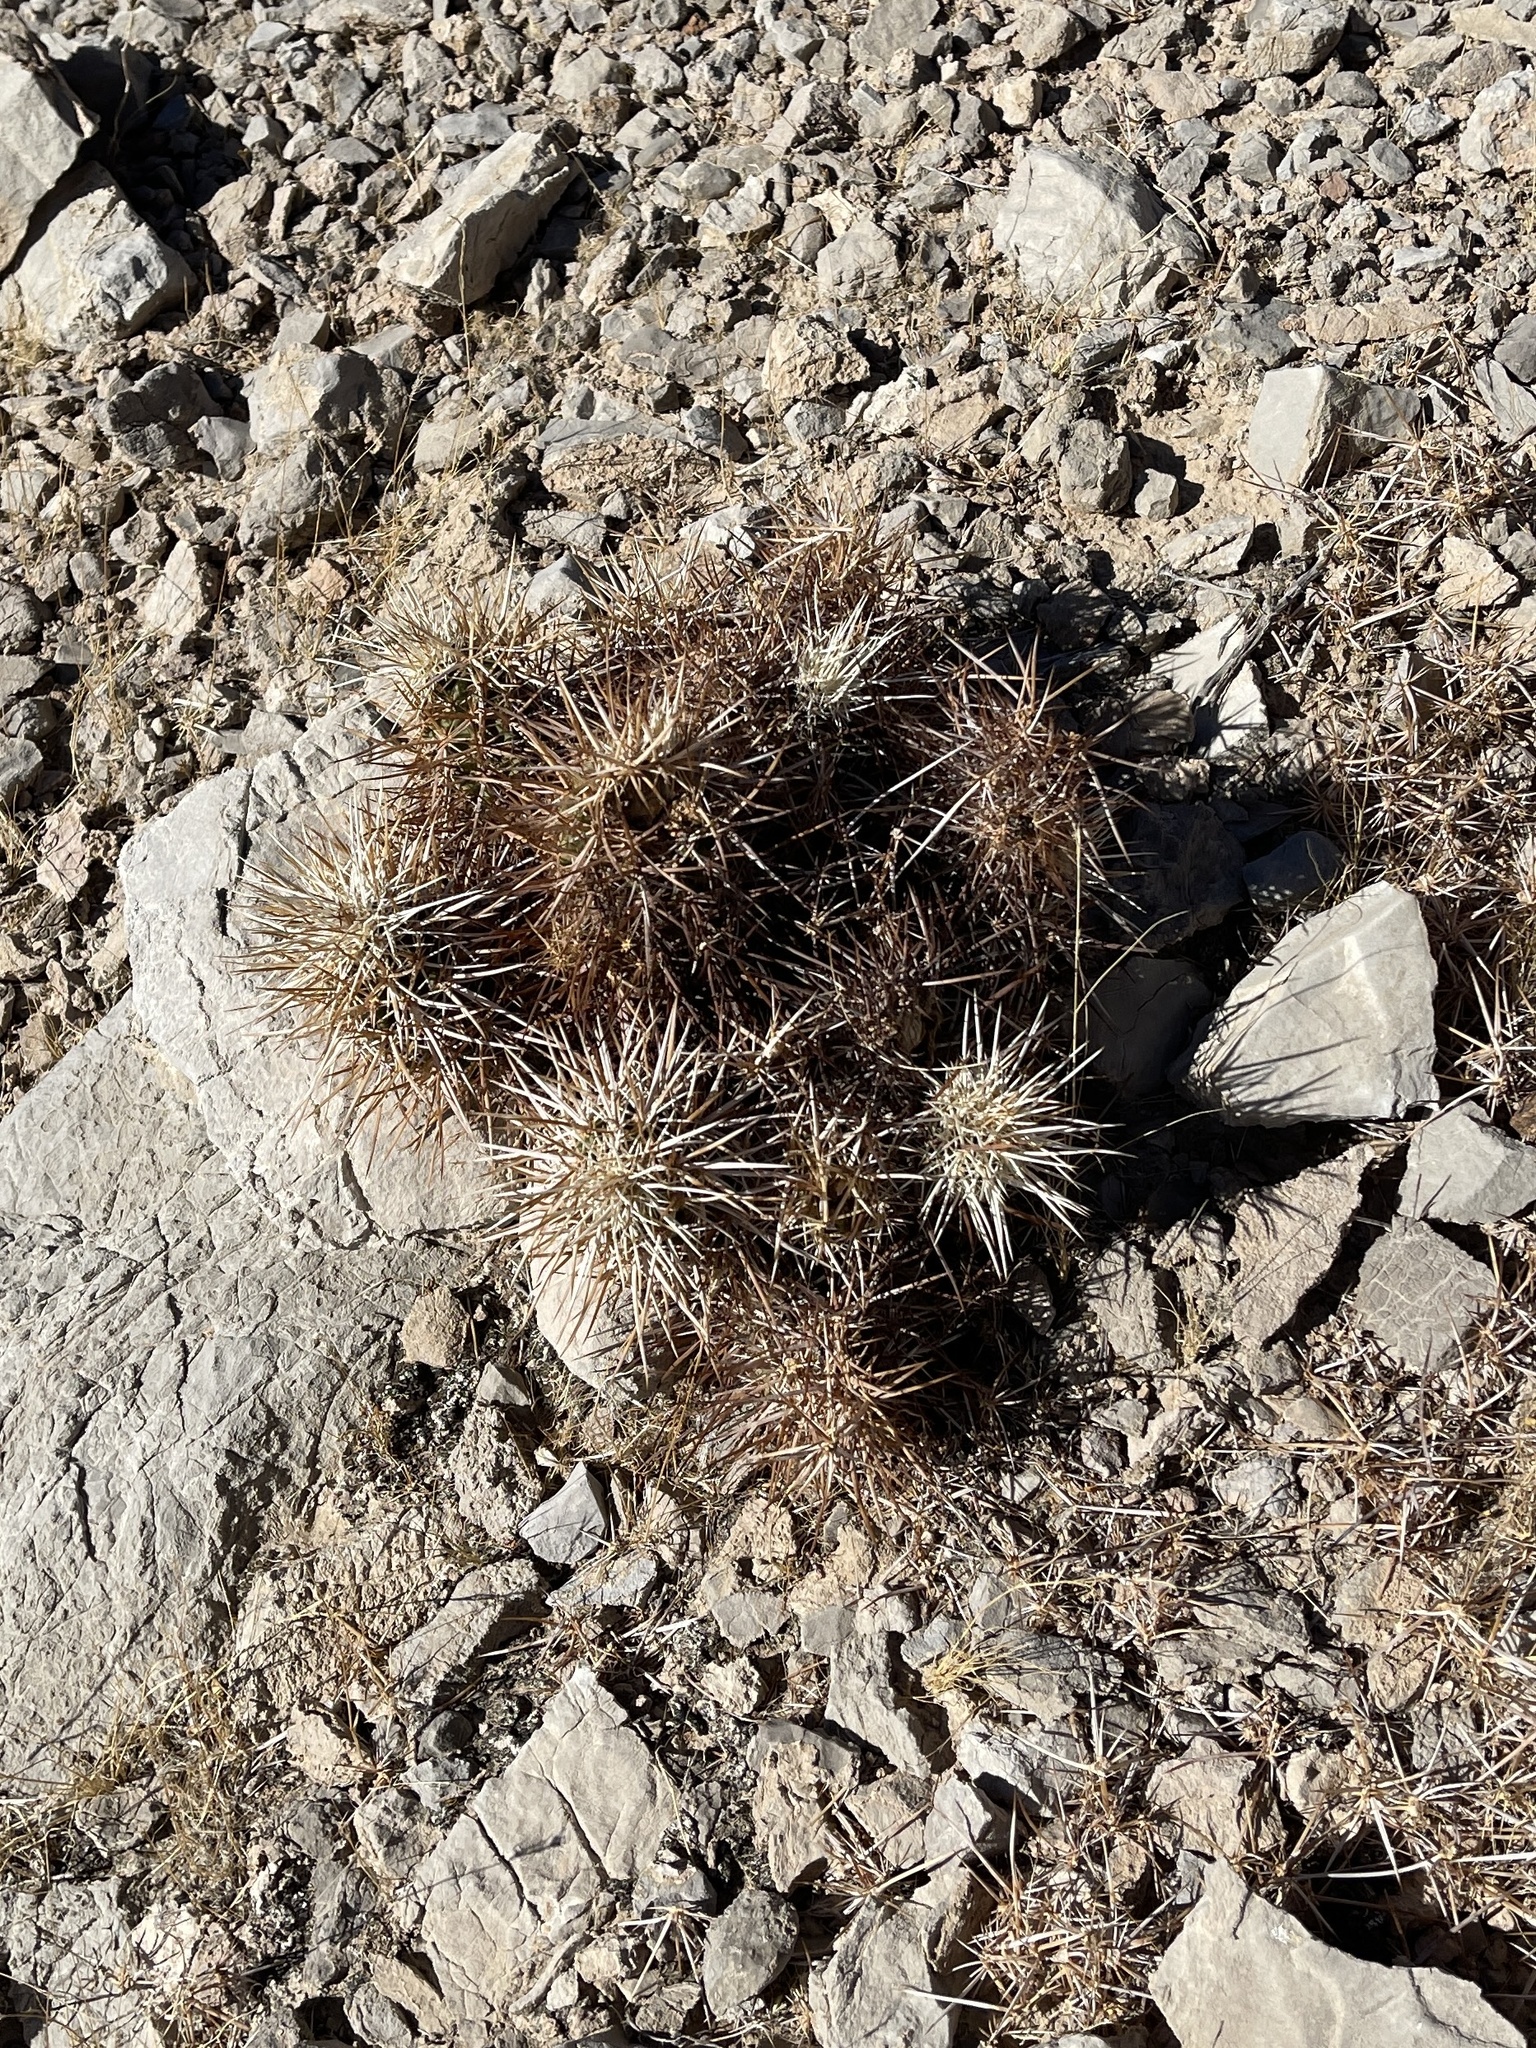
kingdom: Plantae
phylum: Tracheophyta
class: Magnoliopsida
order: Caryophyllales
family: Cactaceae
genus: Echinocereus
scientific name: Echinocereus engelmannii
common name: Engelmann's hedgehog cactus
